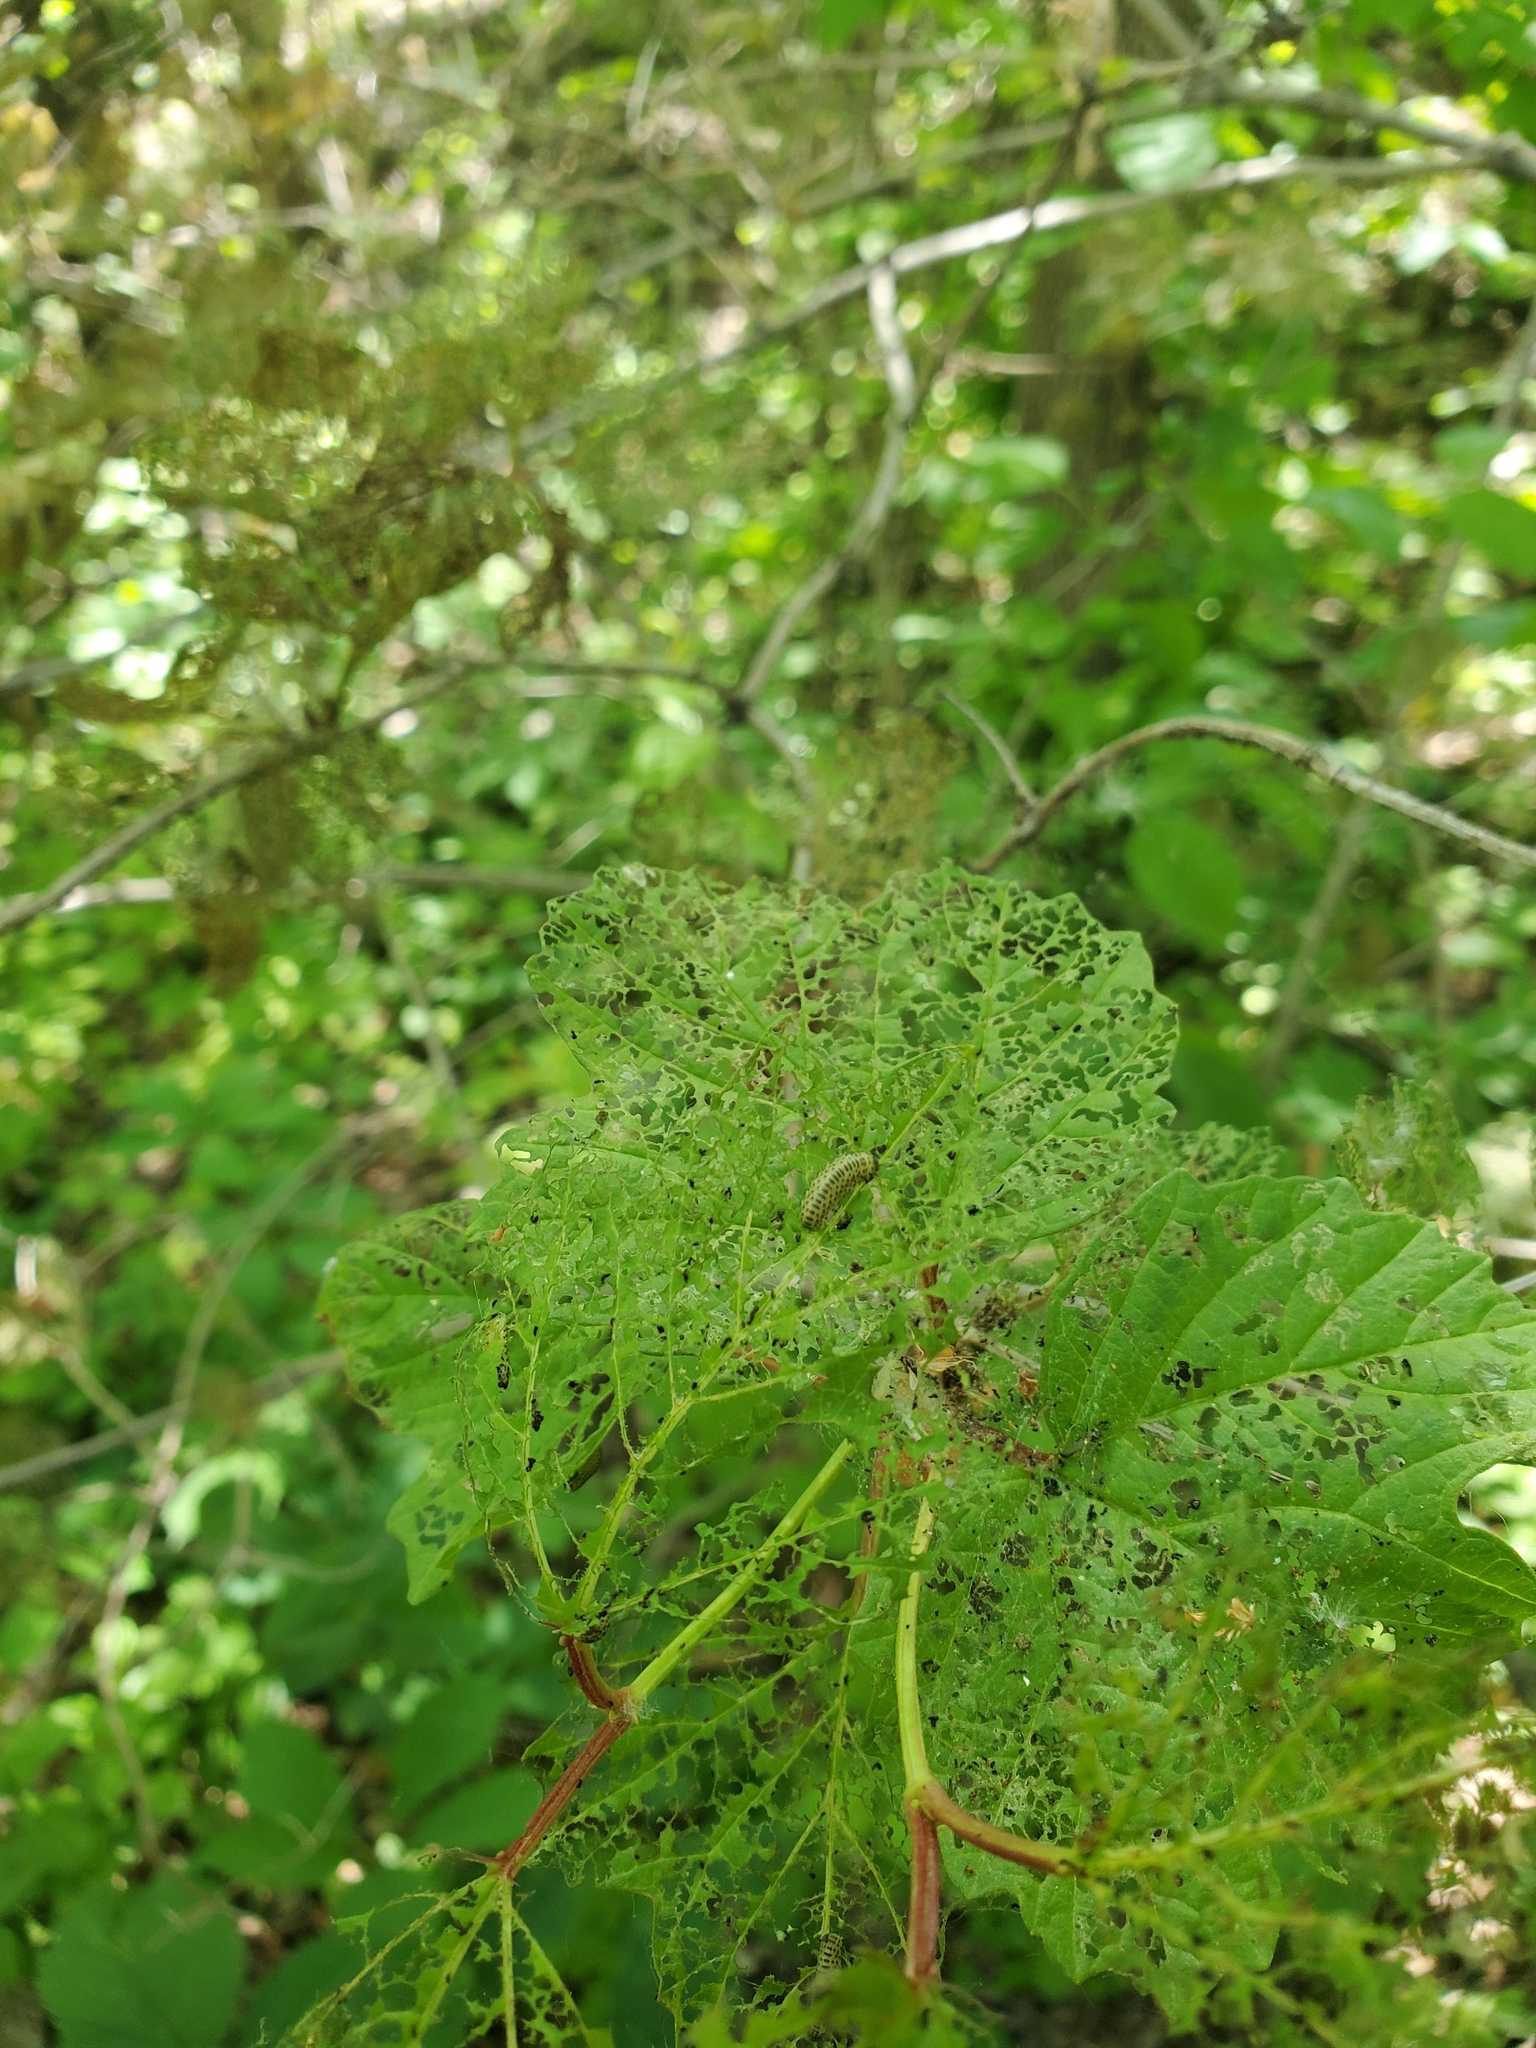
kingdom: Animalia
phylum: Arthropoda
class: Insecta
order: Coleoptera
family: Chrysomelidae
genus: Pyrrhalta
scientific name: Pyrrhalta viburni
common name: Guelder-rose leaf beetle
